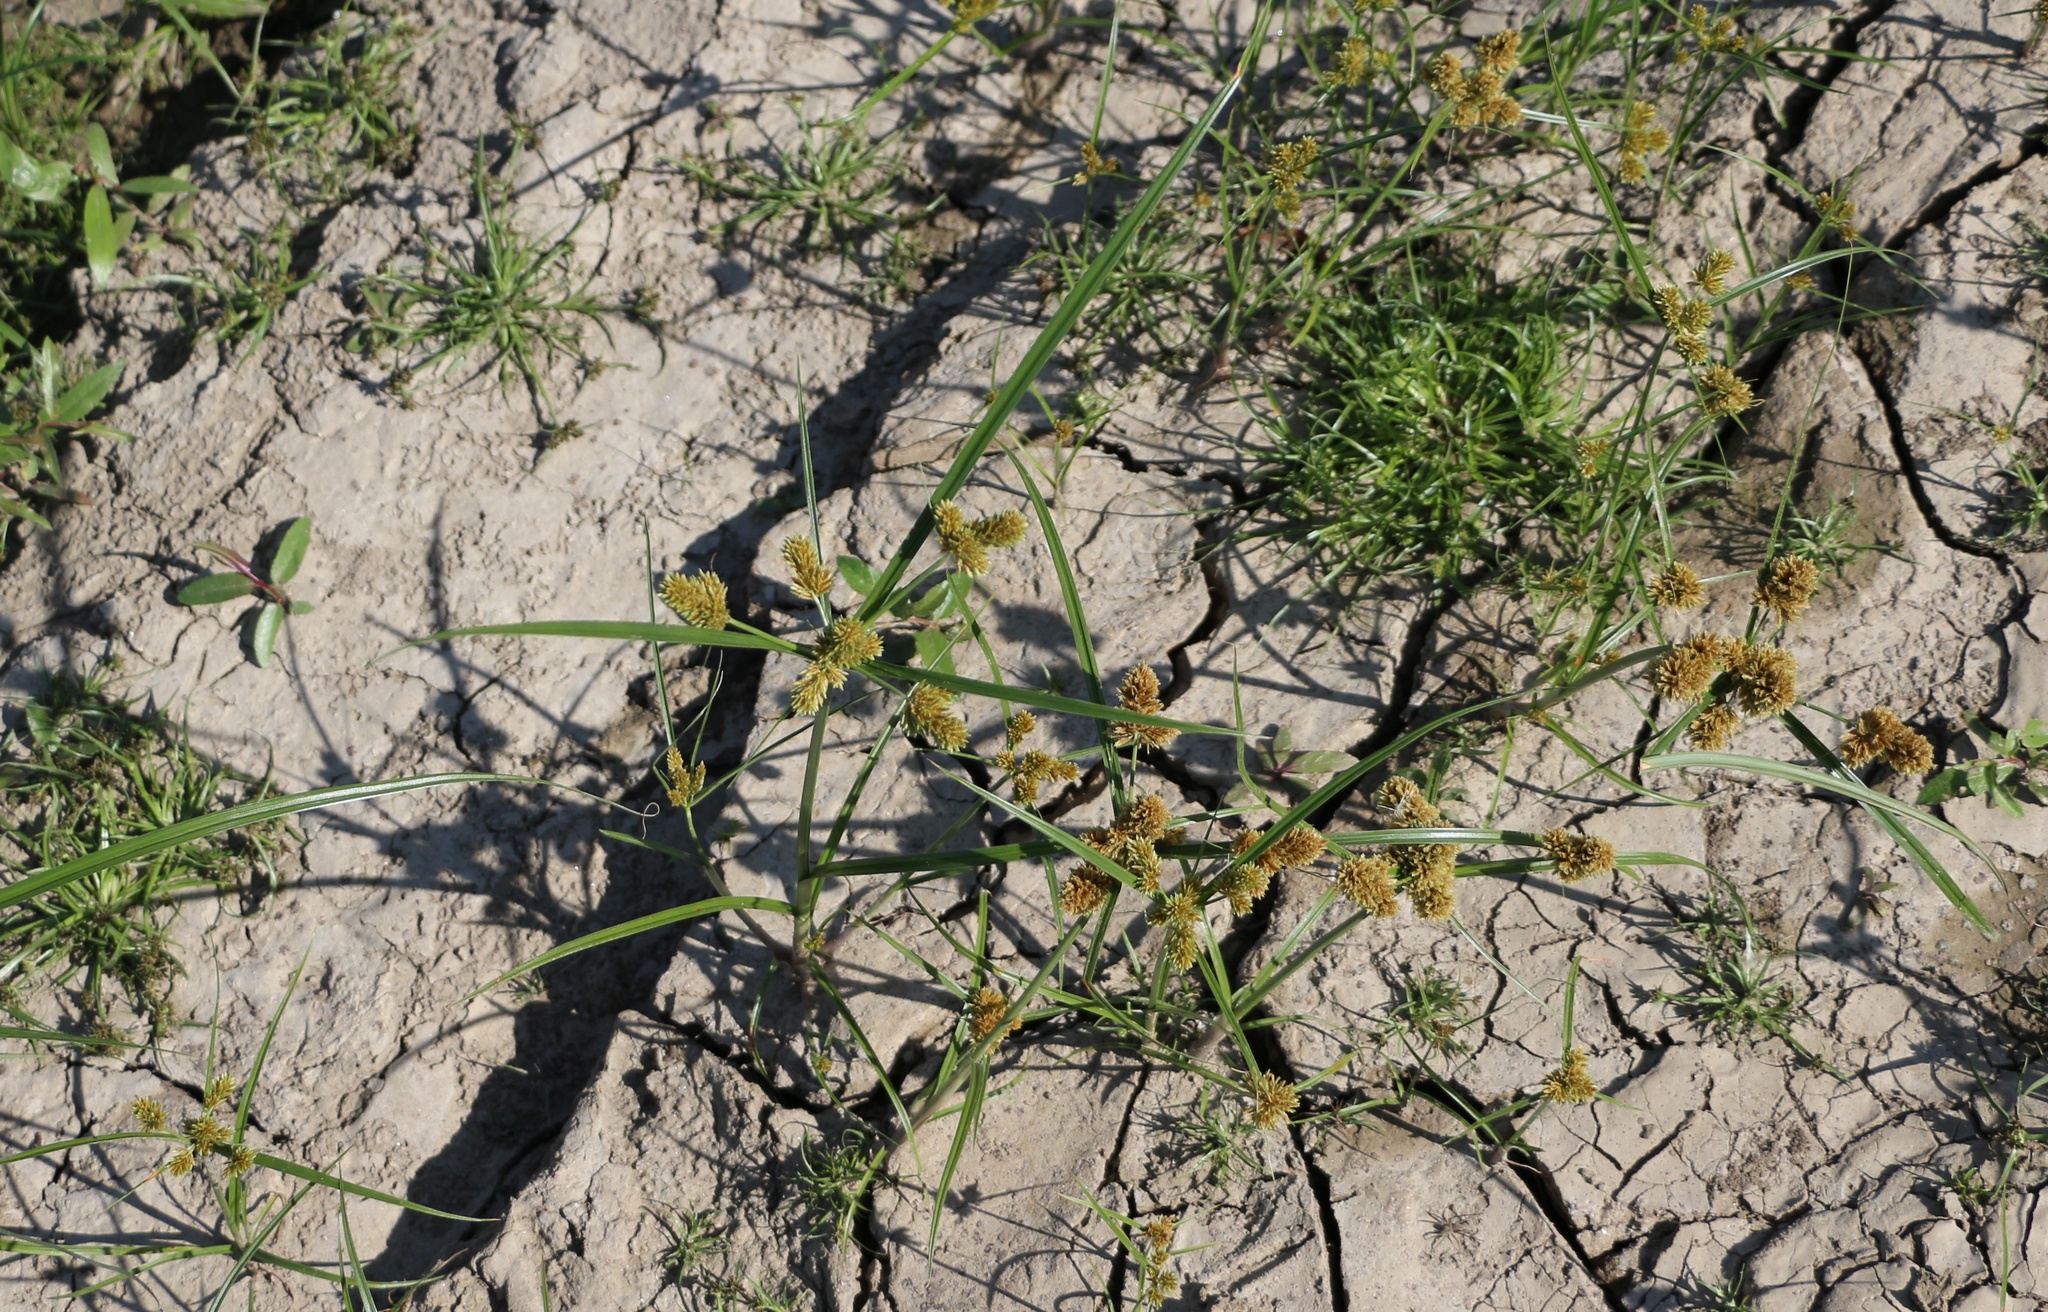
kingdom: Plantae
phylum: Tracheophyta
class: Liliopsida
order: Poales
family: Cyperaceae
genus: Cyperus
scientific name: Cyperus glomeratus
